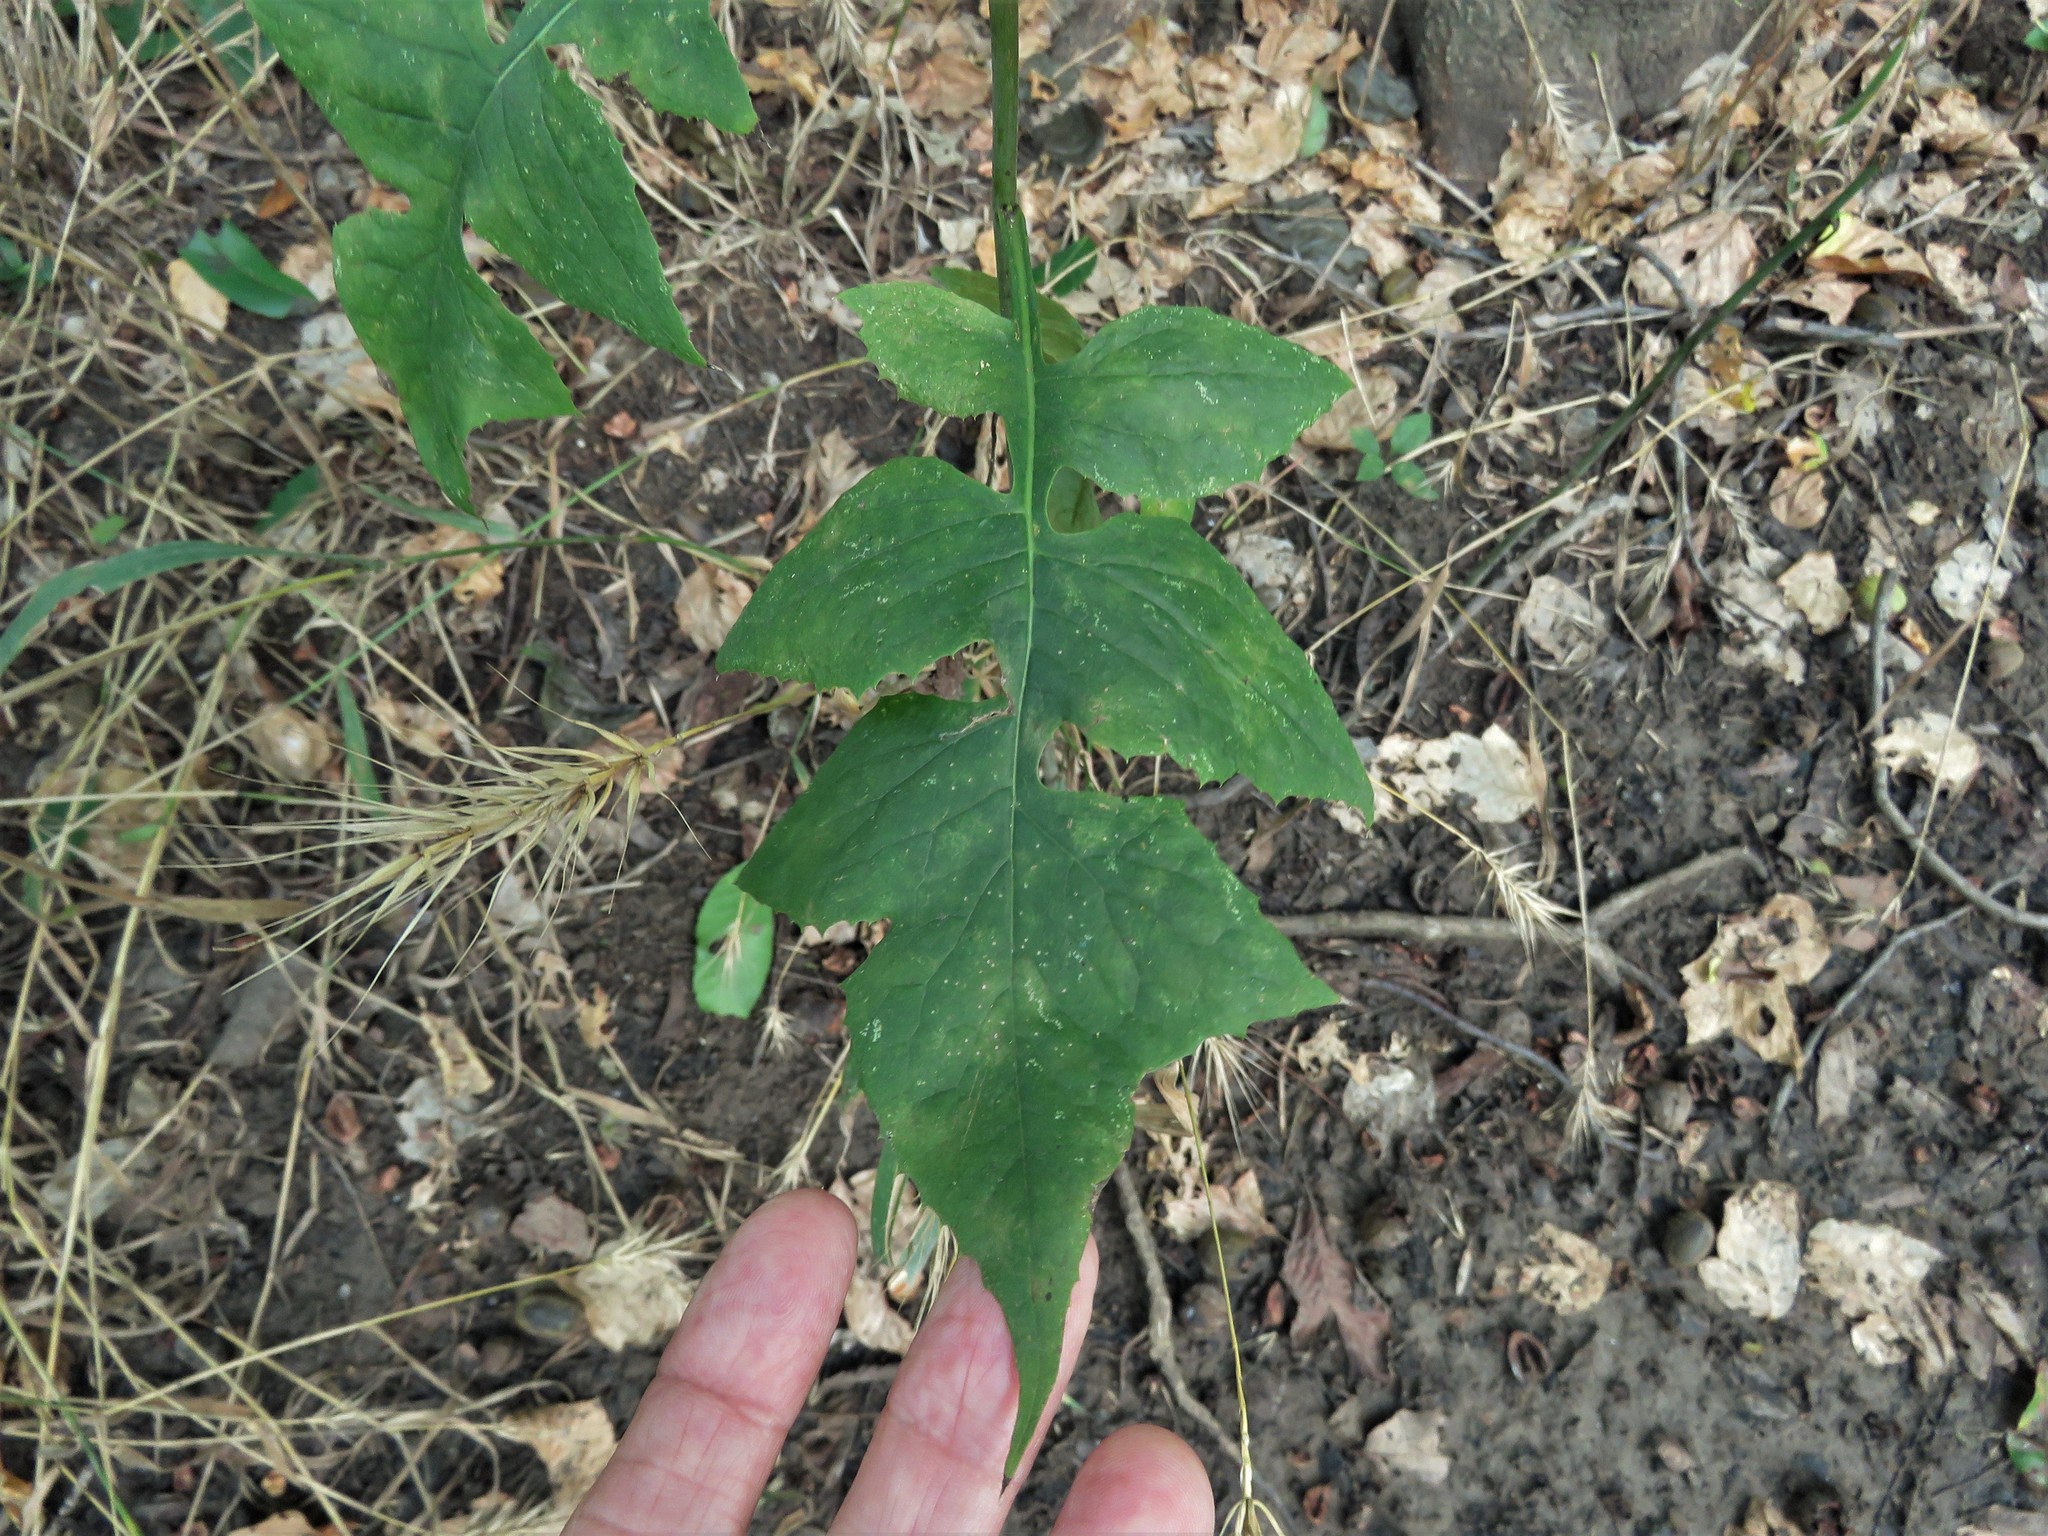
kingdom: Plantae
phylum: Tracheophyta
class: Magnoliopsida
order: Asterales
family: Asteraceae
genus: Lactuca
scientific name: Lactuca floridana
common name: Woodland lettuce
